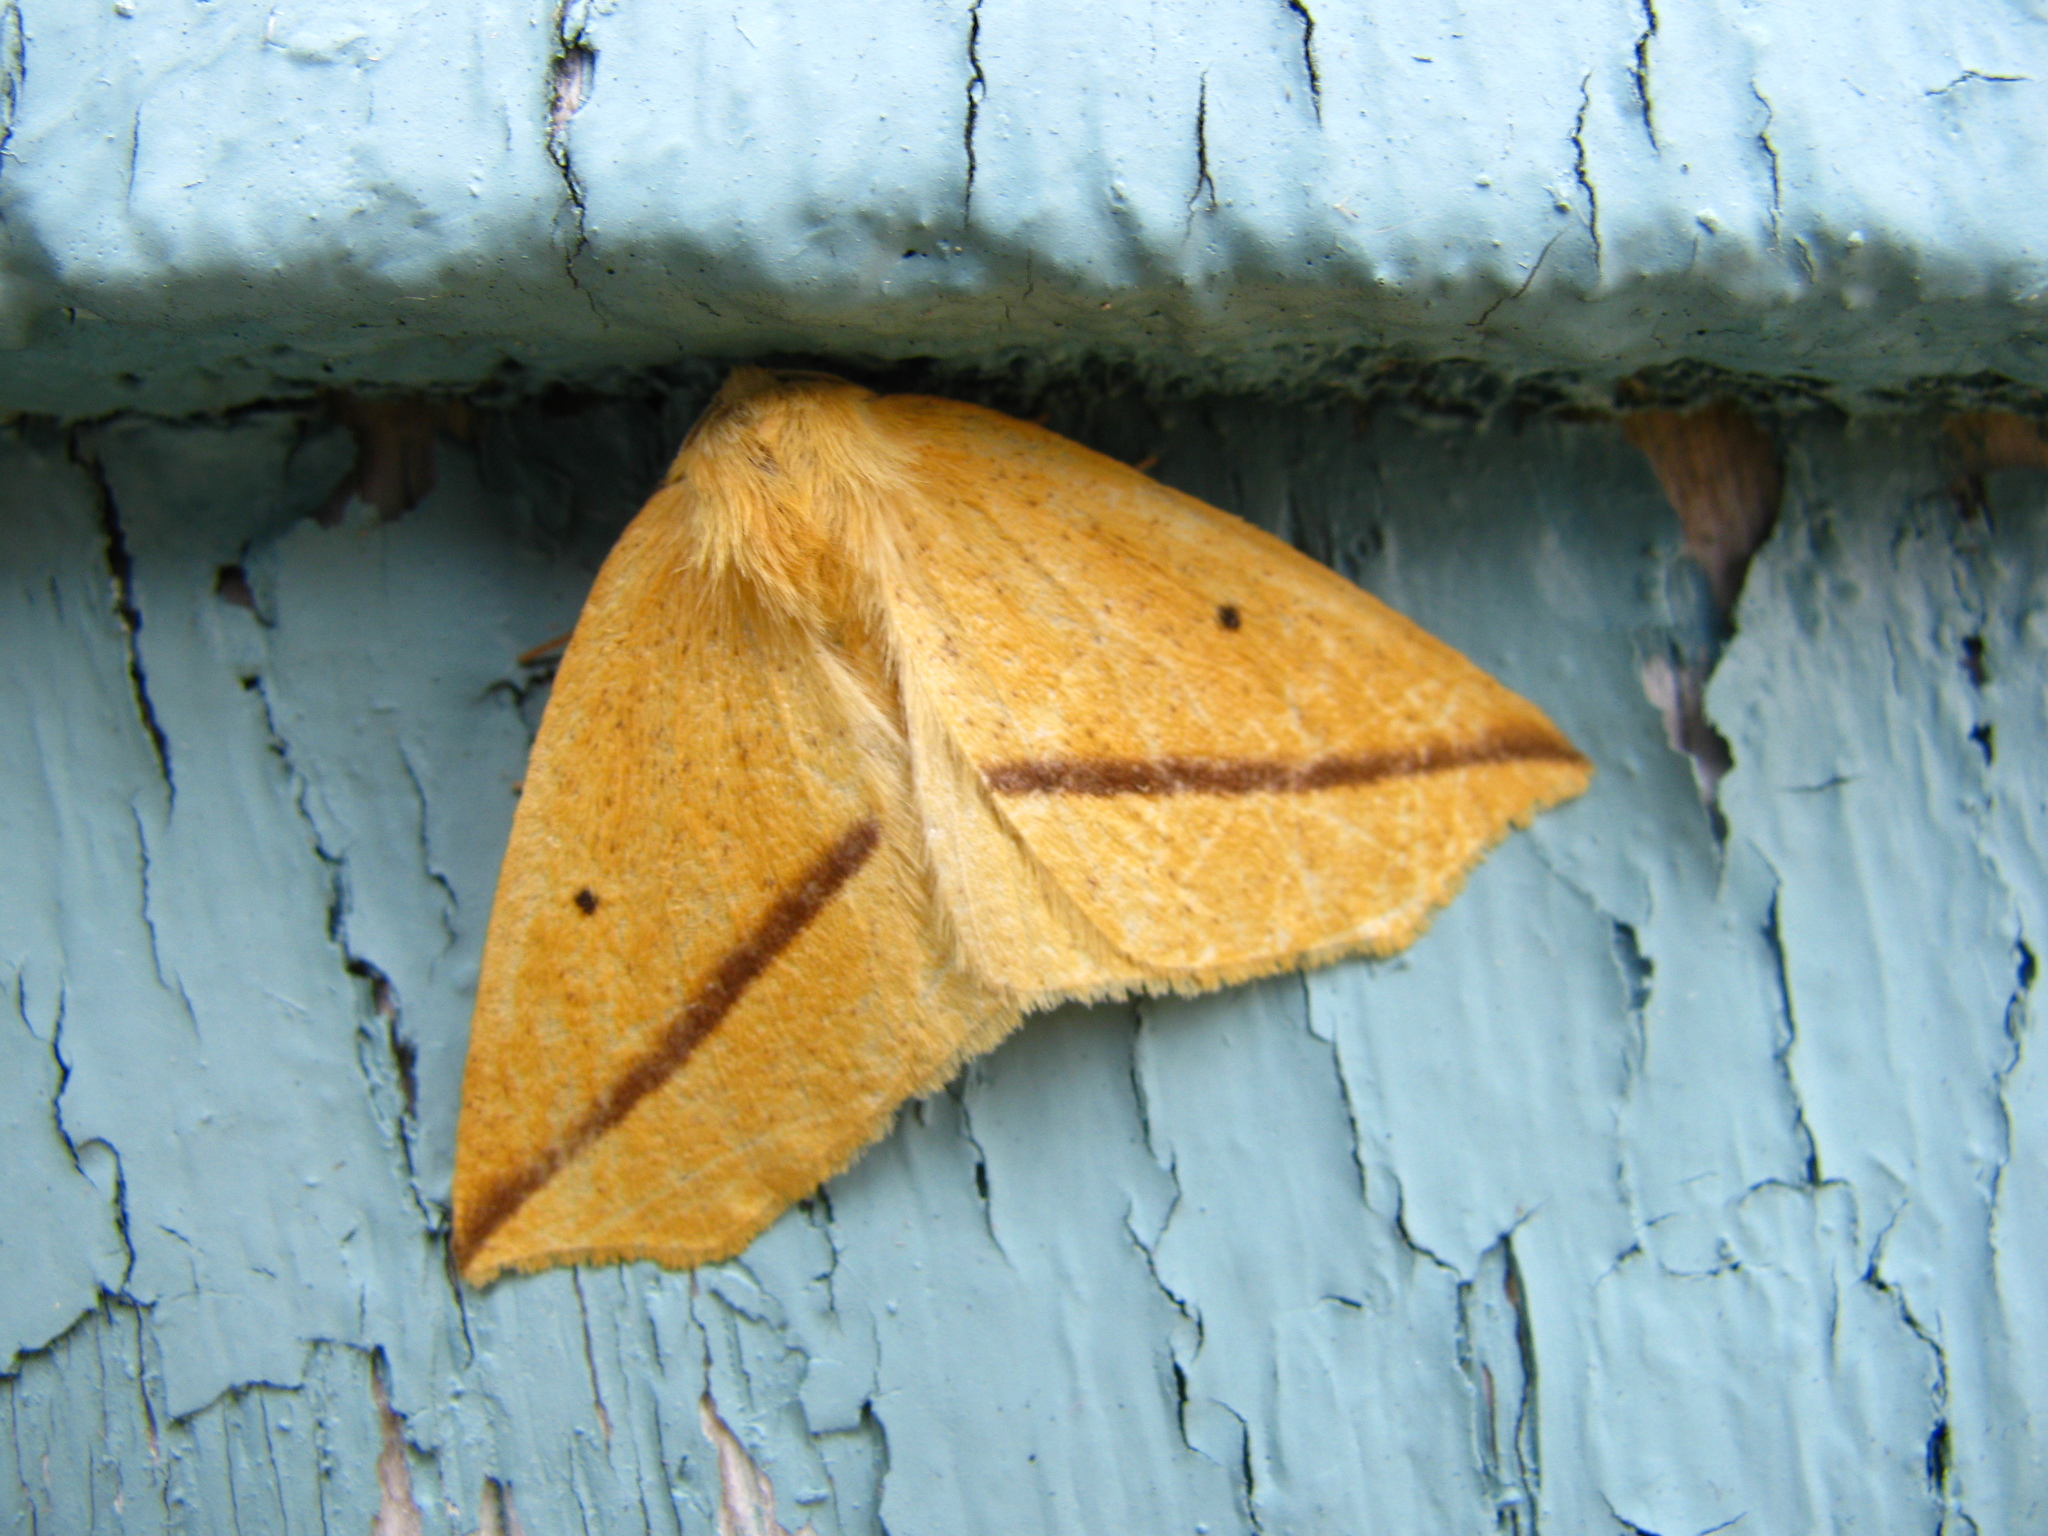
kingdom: Animalia
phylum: Arthropoda
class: Insecta
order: Lepidoptera
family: Geometridae
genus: Tetracis
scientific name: Tetracis crocallata
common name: Yellow slant-line
